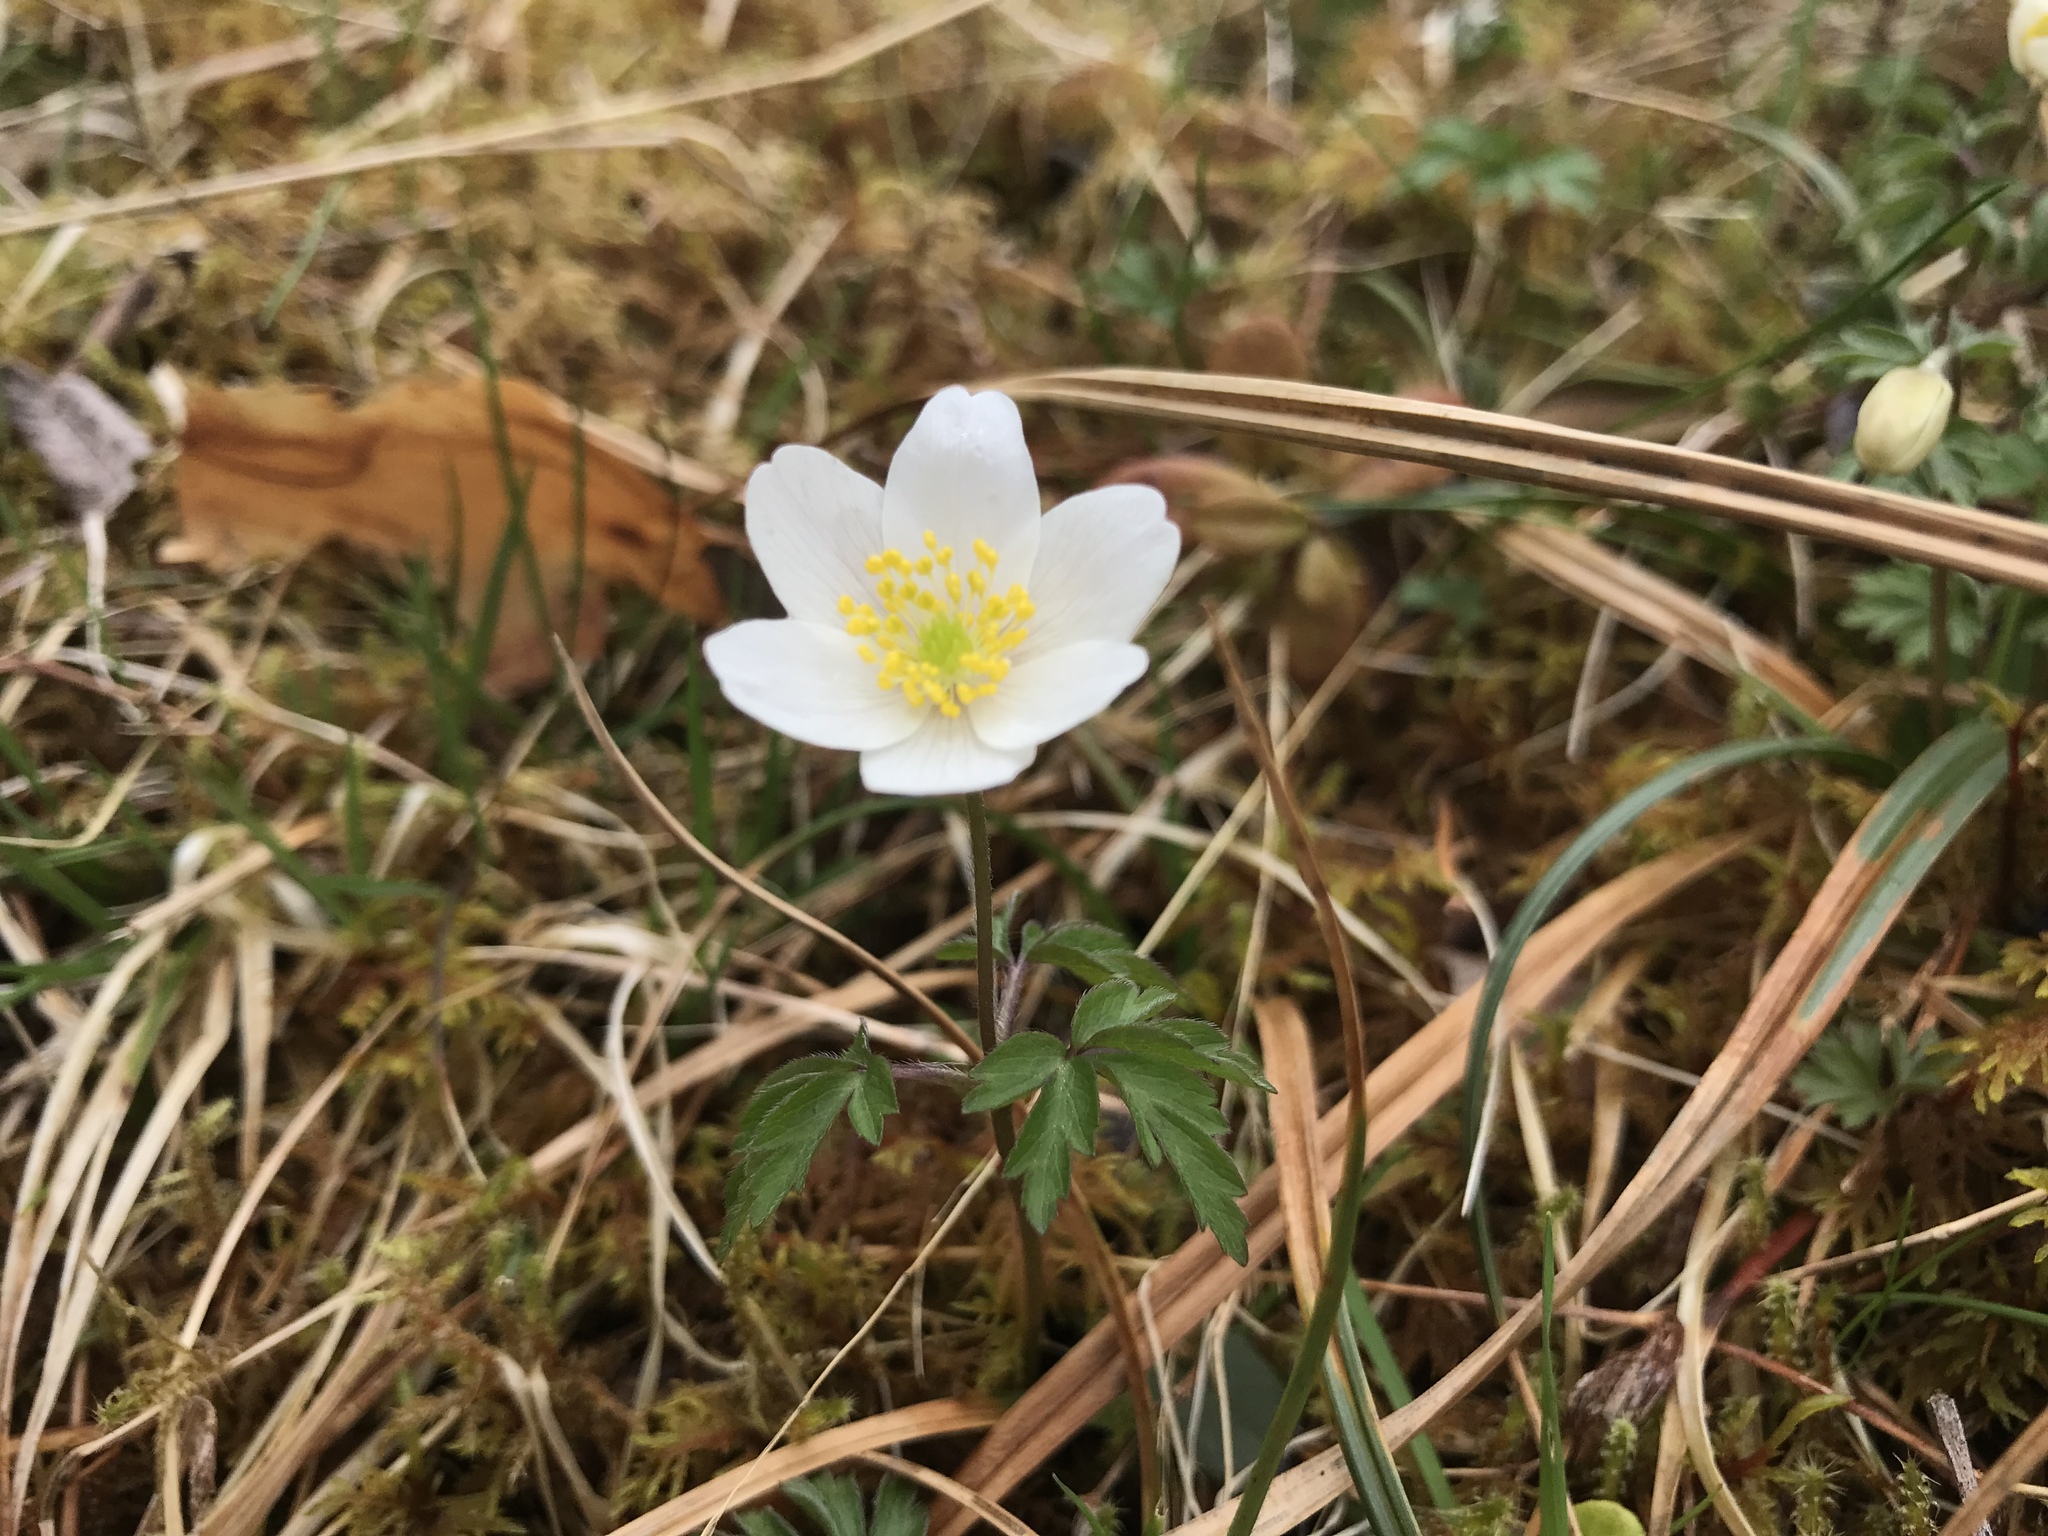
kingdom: Plantae
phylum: Tracheophyta
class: Magnoliopsida
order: Ranunculales
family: Ranunculaceae
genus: Anemone
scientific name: Anemone nemorosa
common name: Wood anemone
